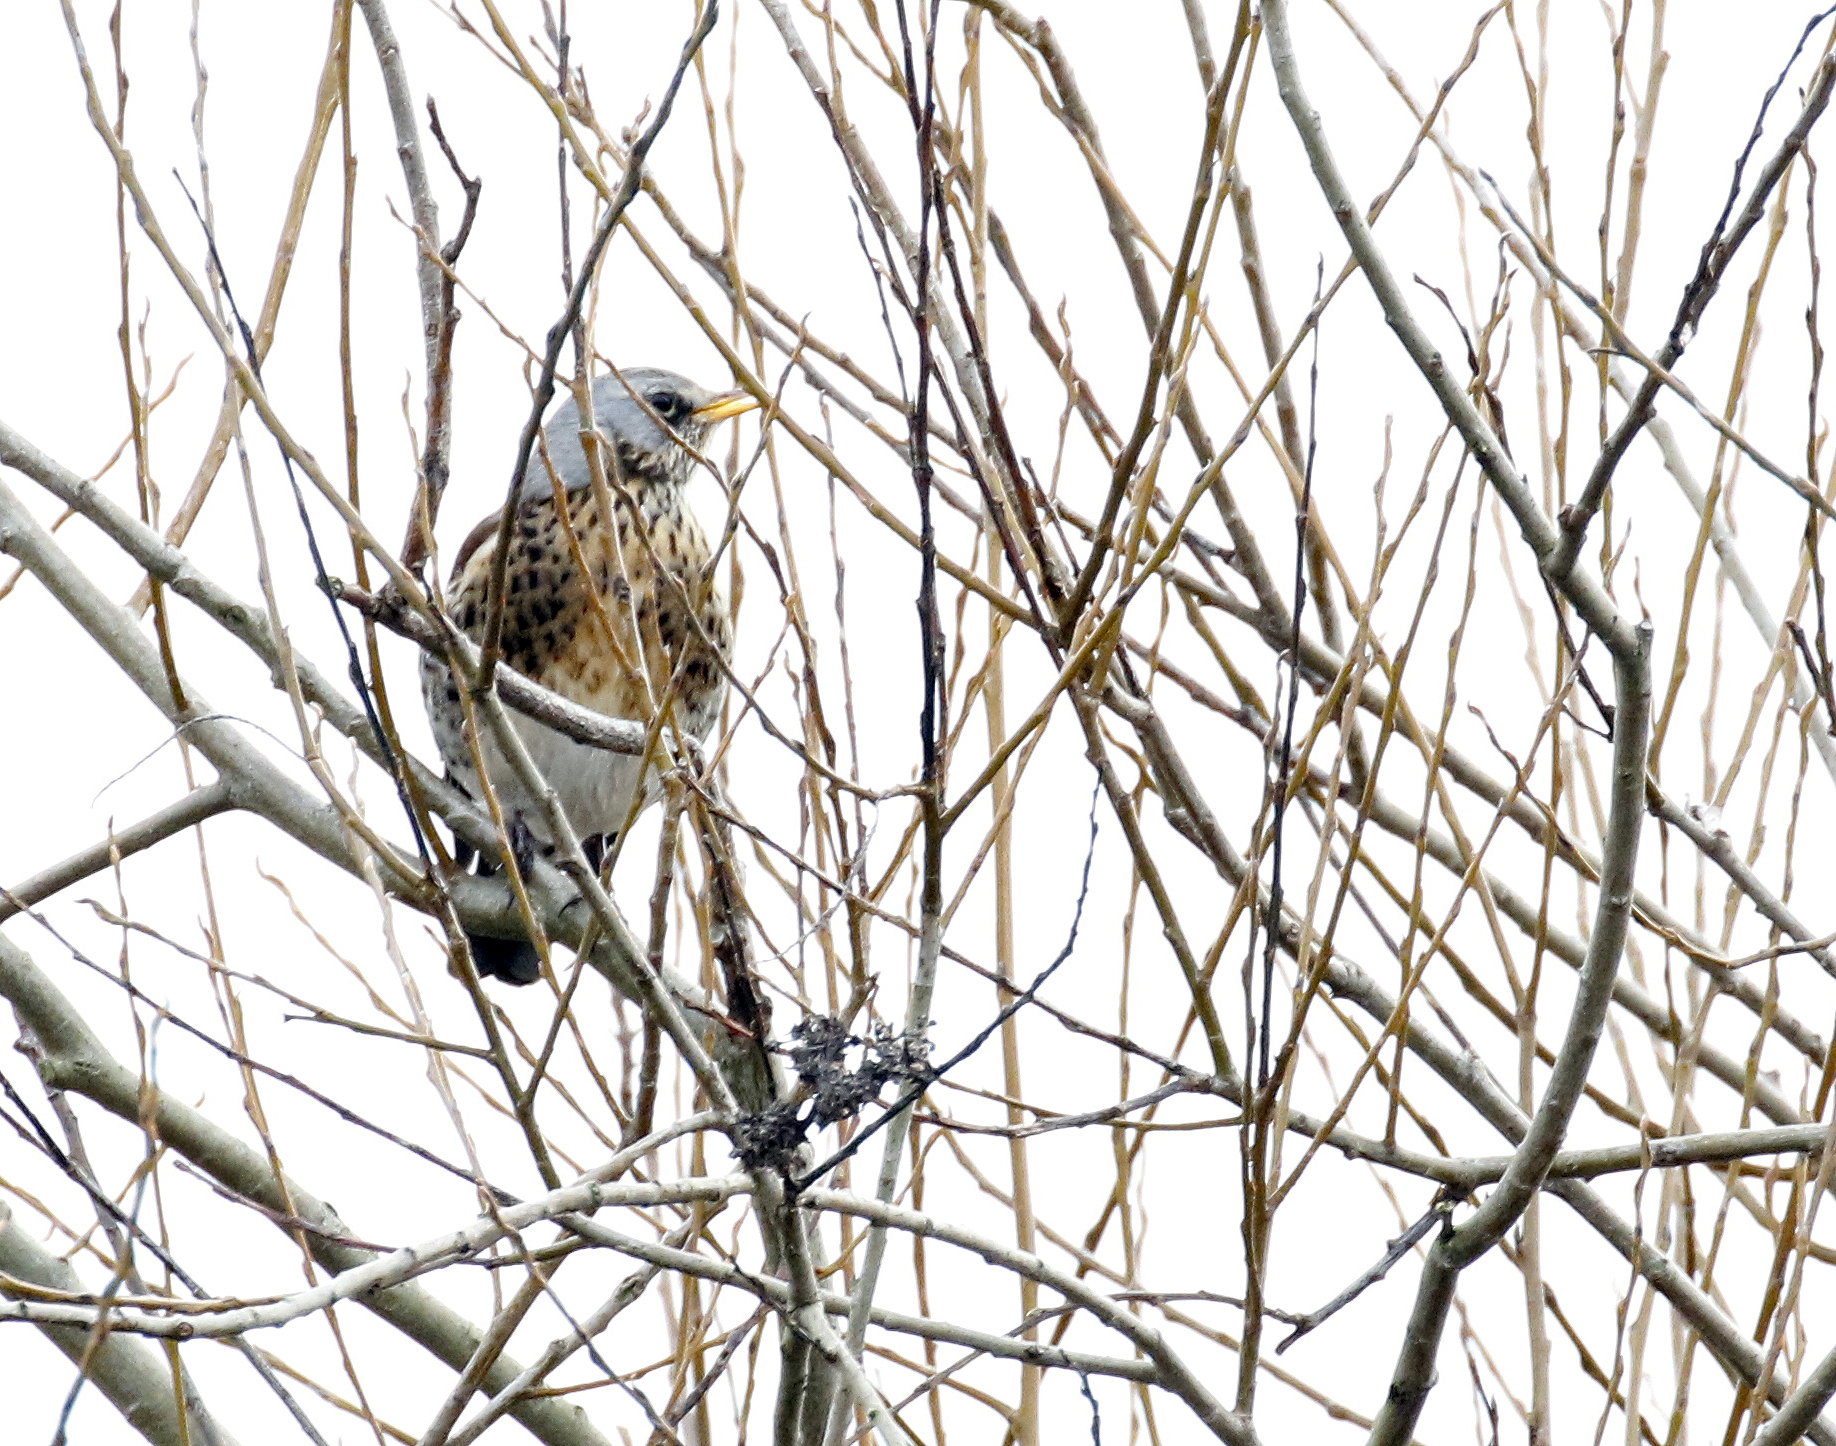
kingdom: Animalia
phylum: Chordata
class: Aves
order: Passeriformes
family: Turdidae
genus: Turdus
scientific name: Turdus pilaris
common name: Fieldfare
